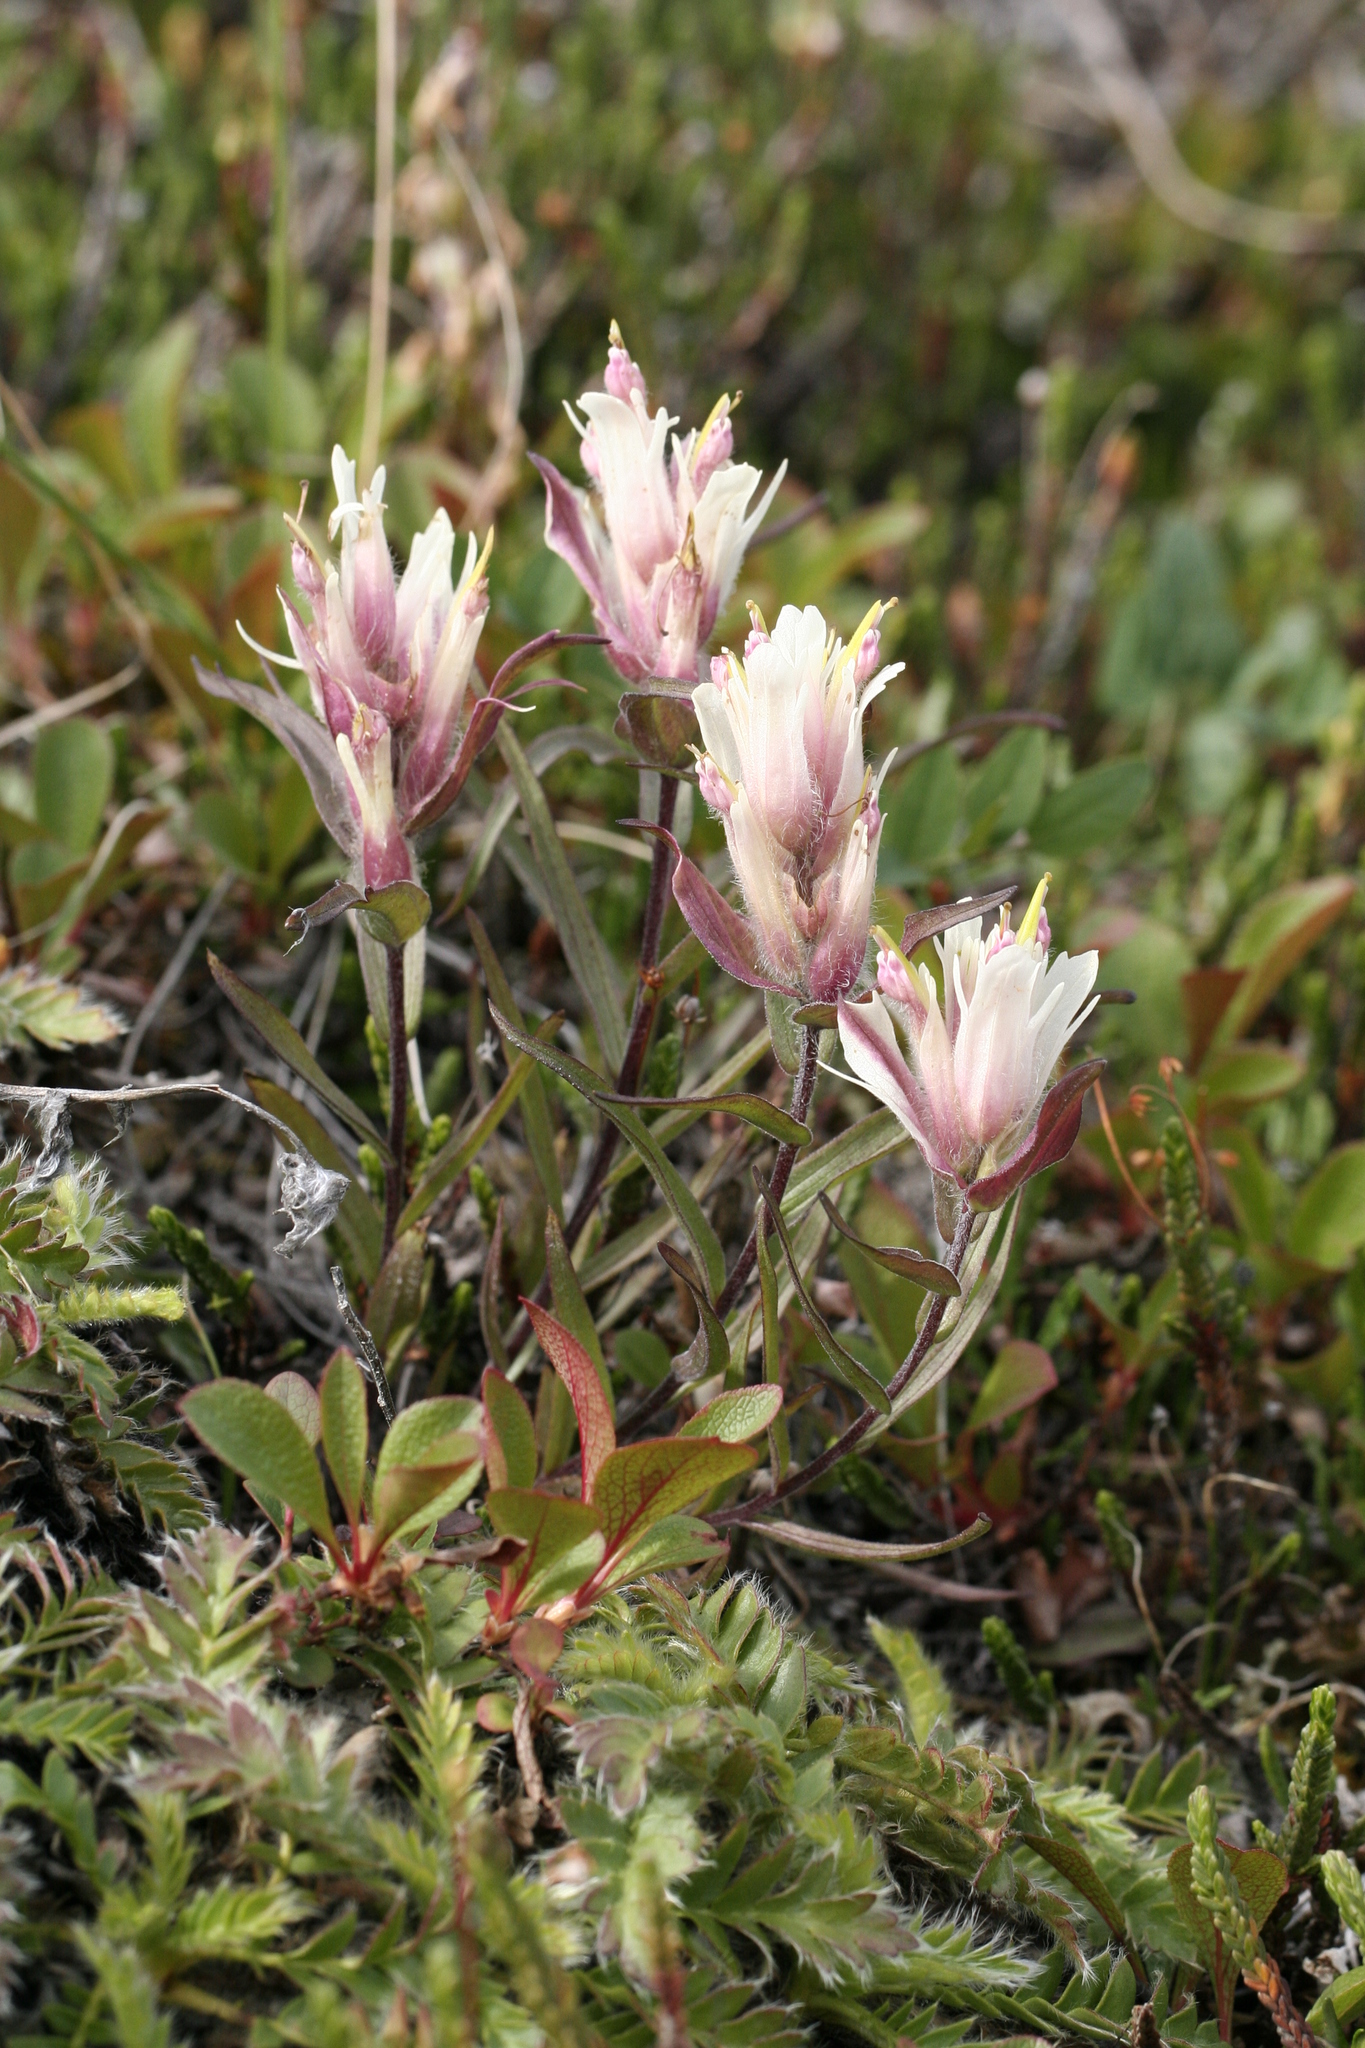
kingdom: Plantae
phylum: Tracheophyta
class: Magnoliopsida
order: Lamiales
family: Orobanchaceae
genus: Castilleja
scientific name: Castilleja elegans
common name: Elegant paintbrush
